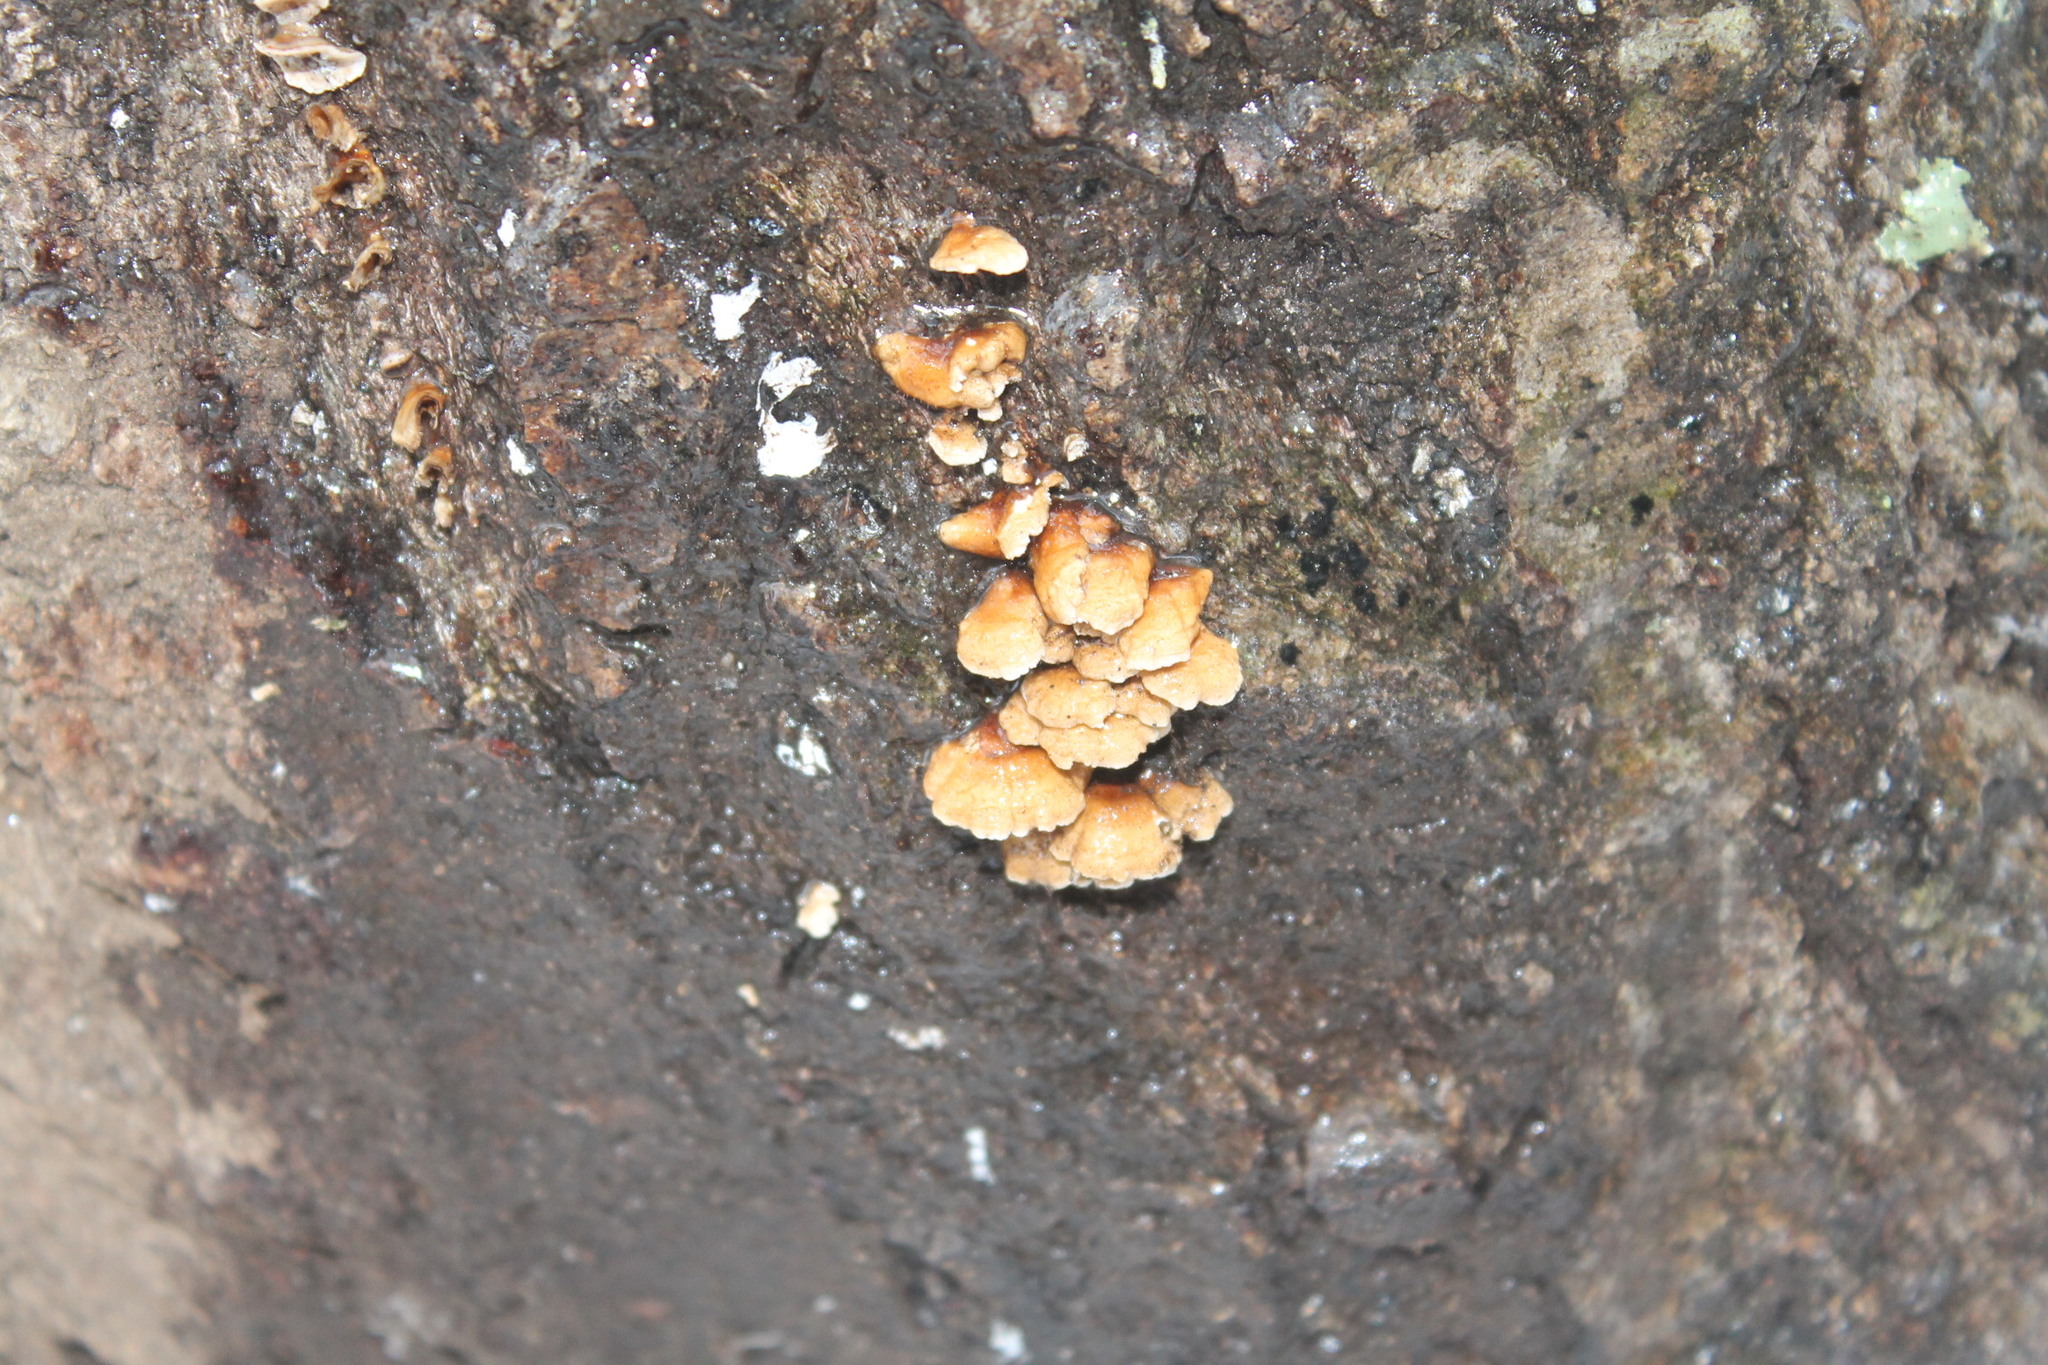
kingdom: Fungi
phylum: Basidiomycota
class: Agaricomycetes
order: Amylocorticiales
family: Amylocorticiaceae
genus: Plicaturopsis
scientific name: Plicaturopsis crispa
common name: Crimped gill
